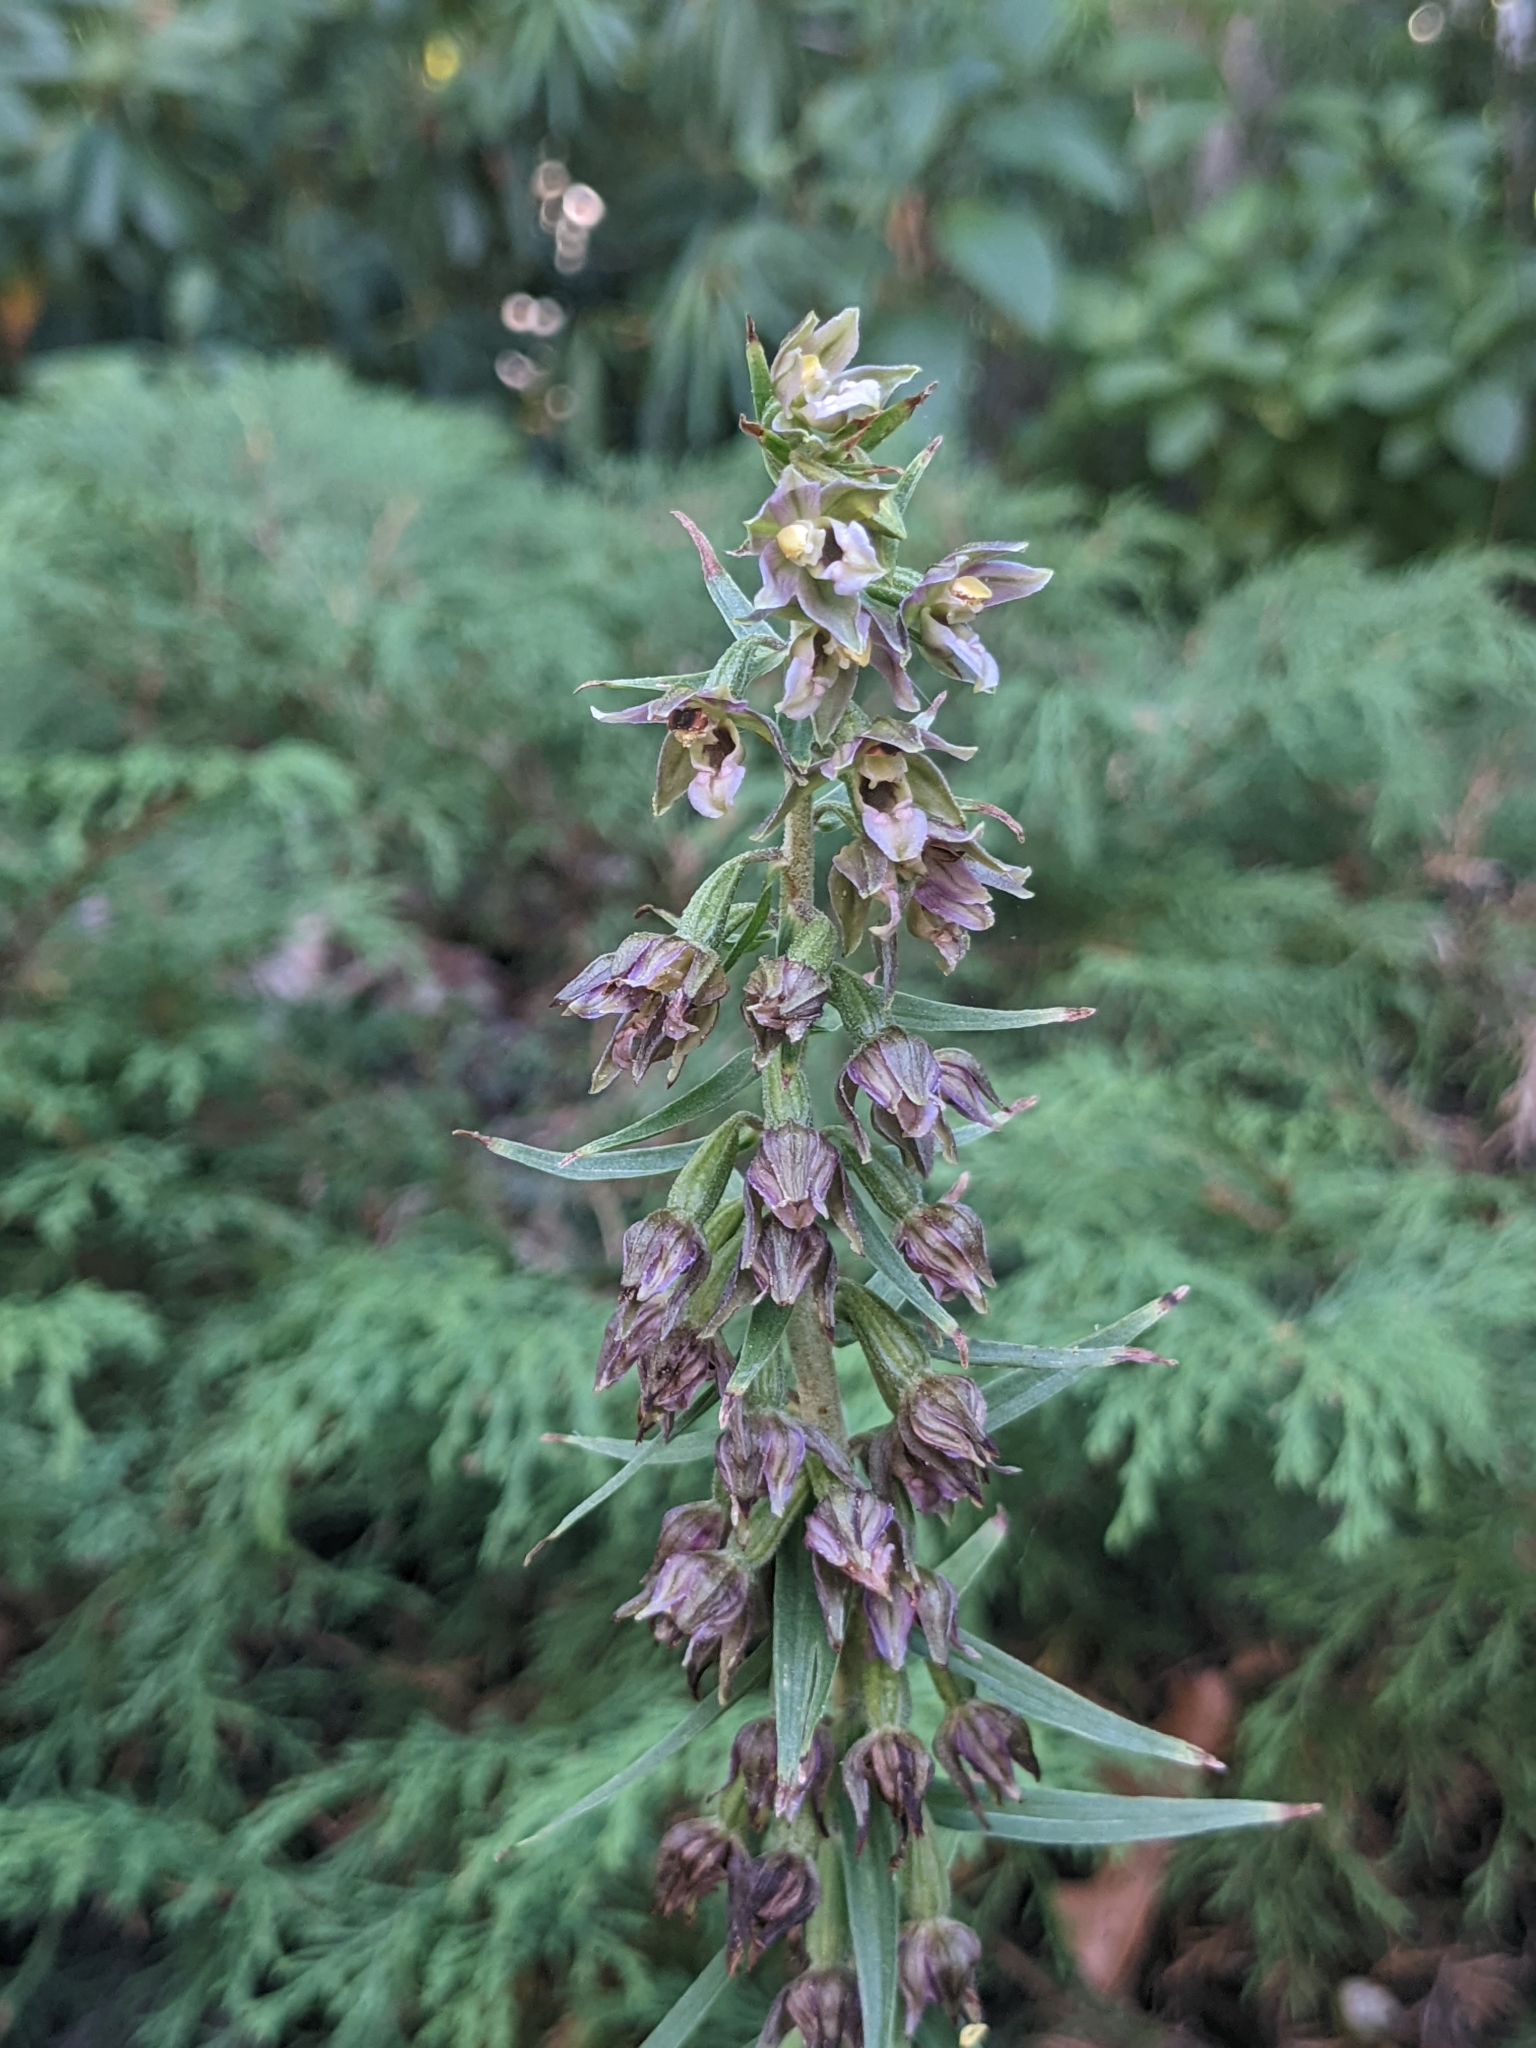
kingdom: Plantae
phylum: Tracheophyta
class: Liliopsida
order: Asparagales
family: Orchidaceae
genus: Epipactis
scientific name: Epipactis helleborine
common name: Broad-leaved helleborine
